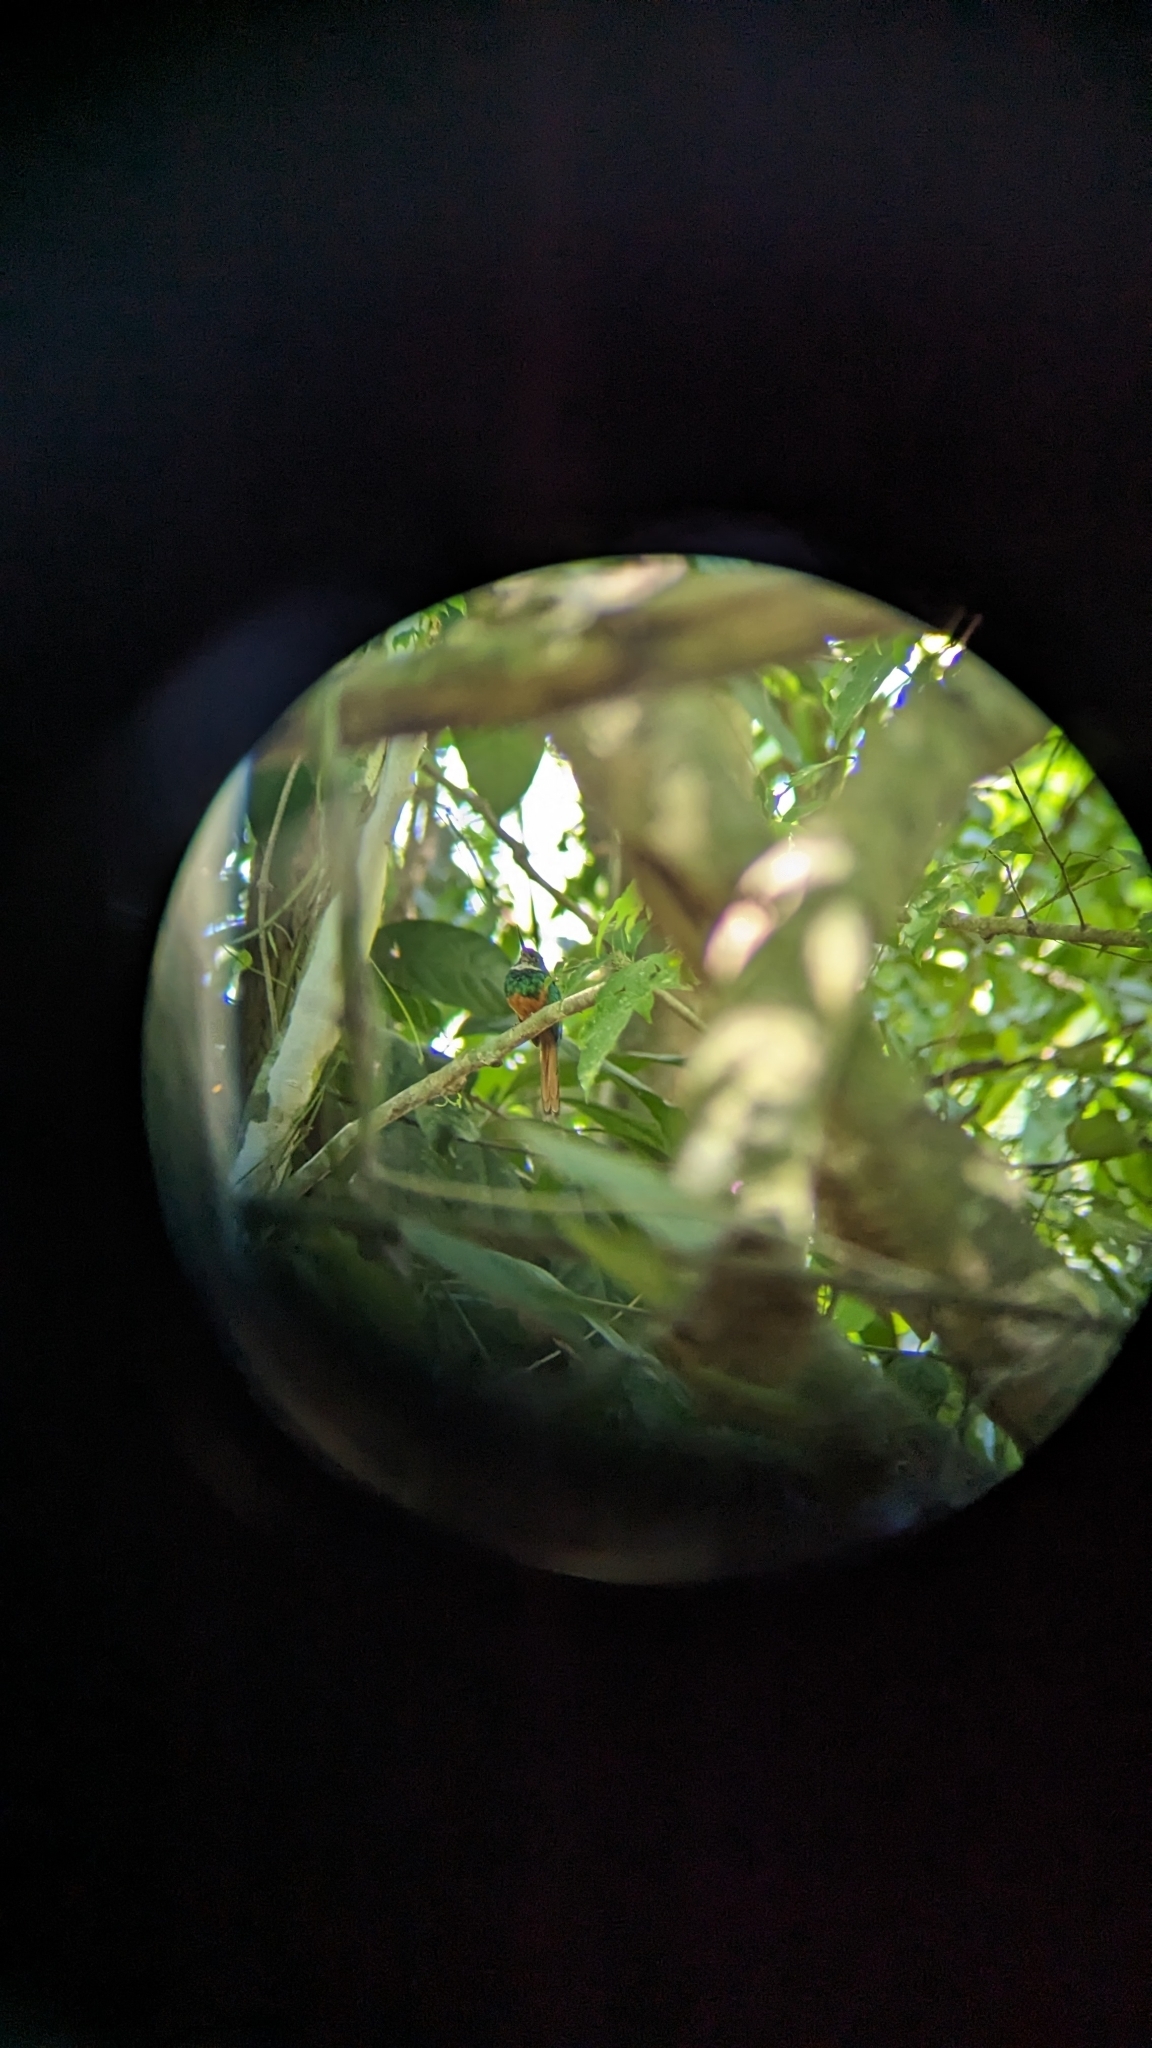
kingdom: Animalia
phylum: Chordata
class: Aves
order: Piciformes
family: Galbulidae
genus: Galbula
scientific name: Galbula ruficauda
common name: Rufous-tailed jacamar
